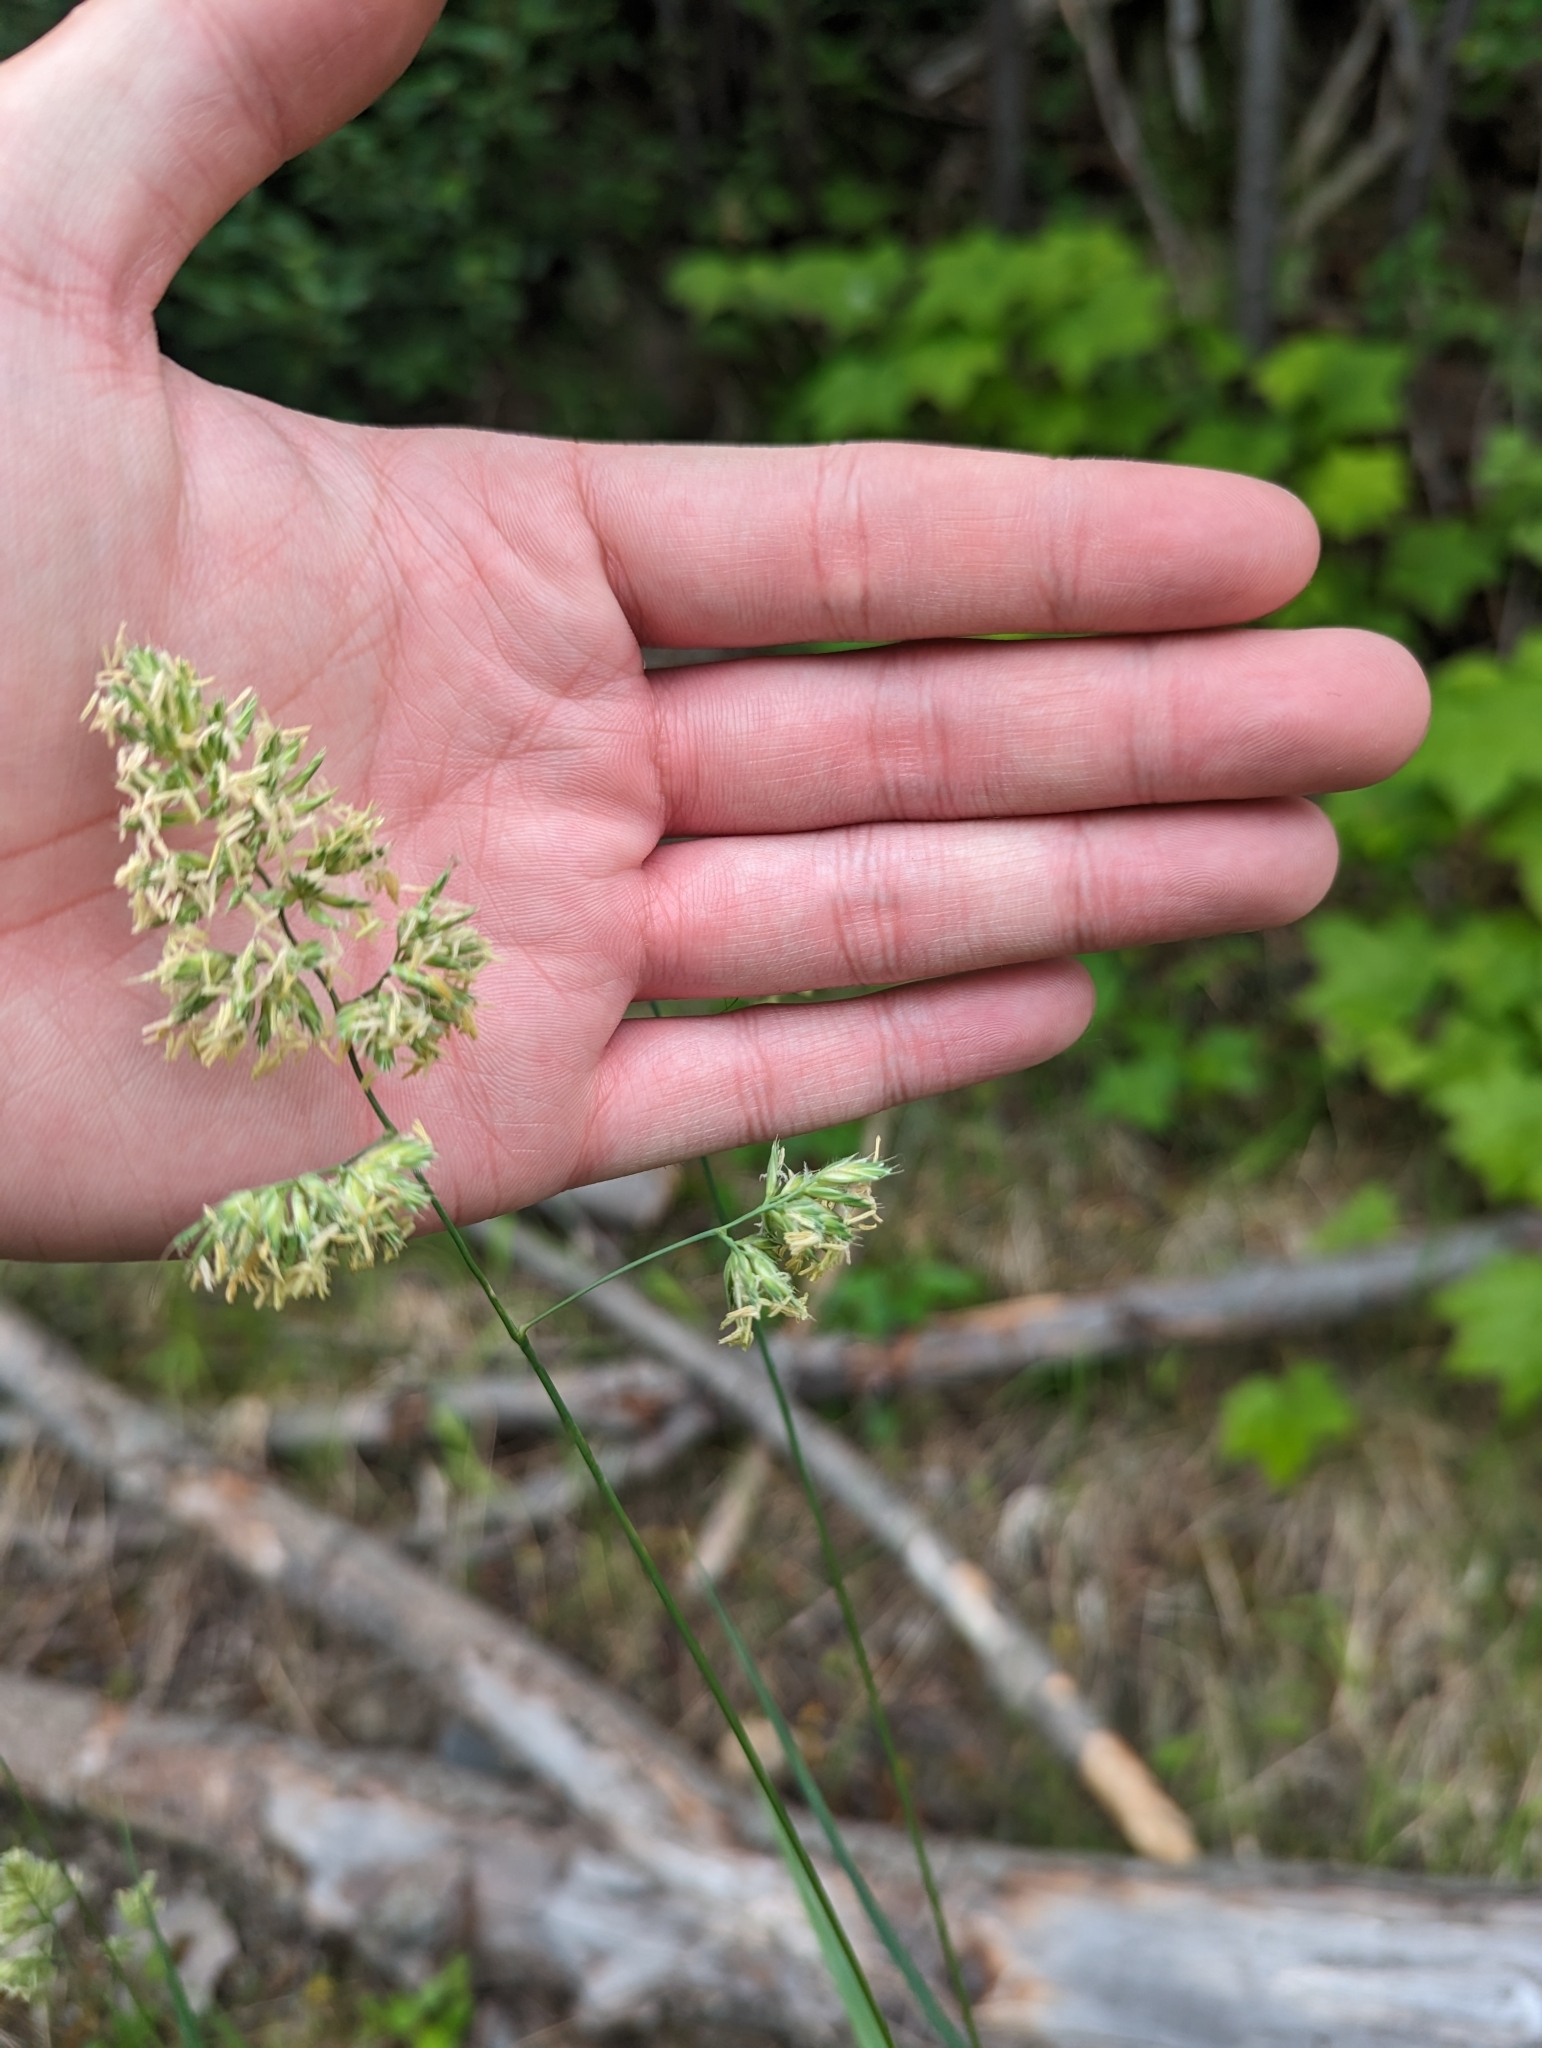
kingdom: Plantae
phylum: Tracheophyta
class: Liliopsida
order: Poales
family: Poaceae
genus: Dactylis
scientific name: Dactylis glomerata
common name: Orchardgrass
